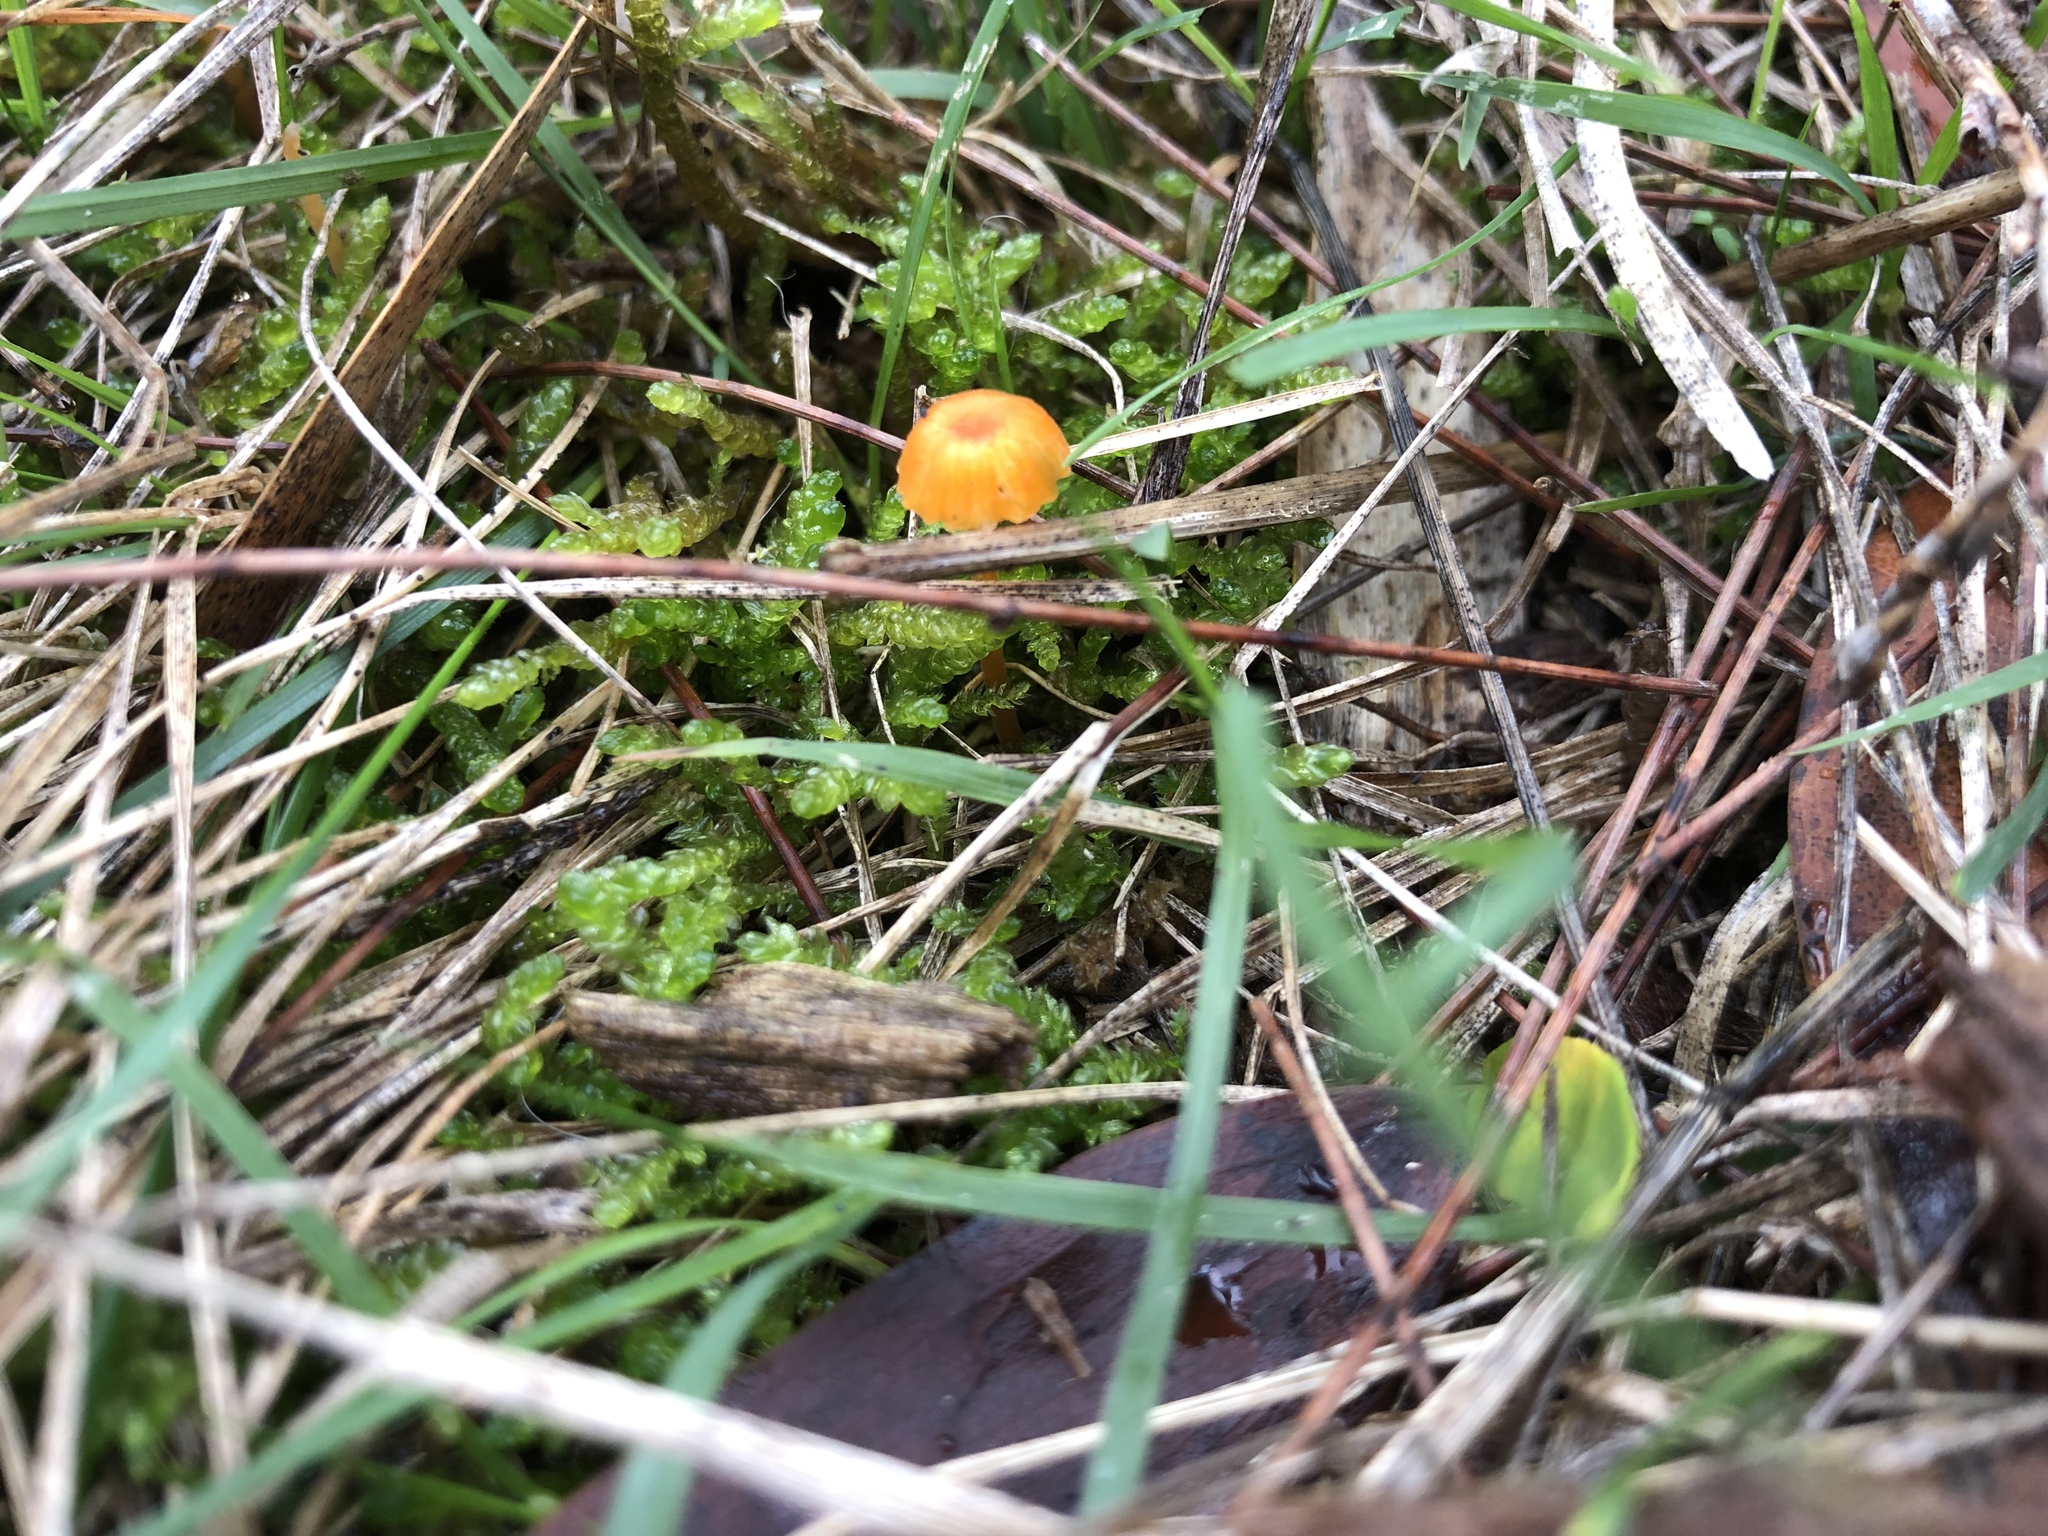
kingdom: Fungi
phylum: Basidiomycota
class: Agaricomycetes
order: Hymenochaetales
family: Rickenellaceae
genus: Rickenella
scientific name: Rickenella fibula
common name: Orange mosscap
